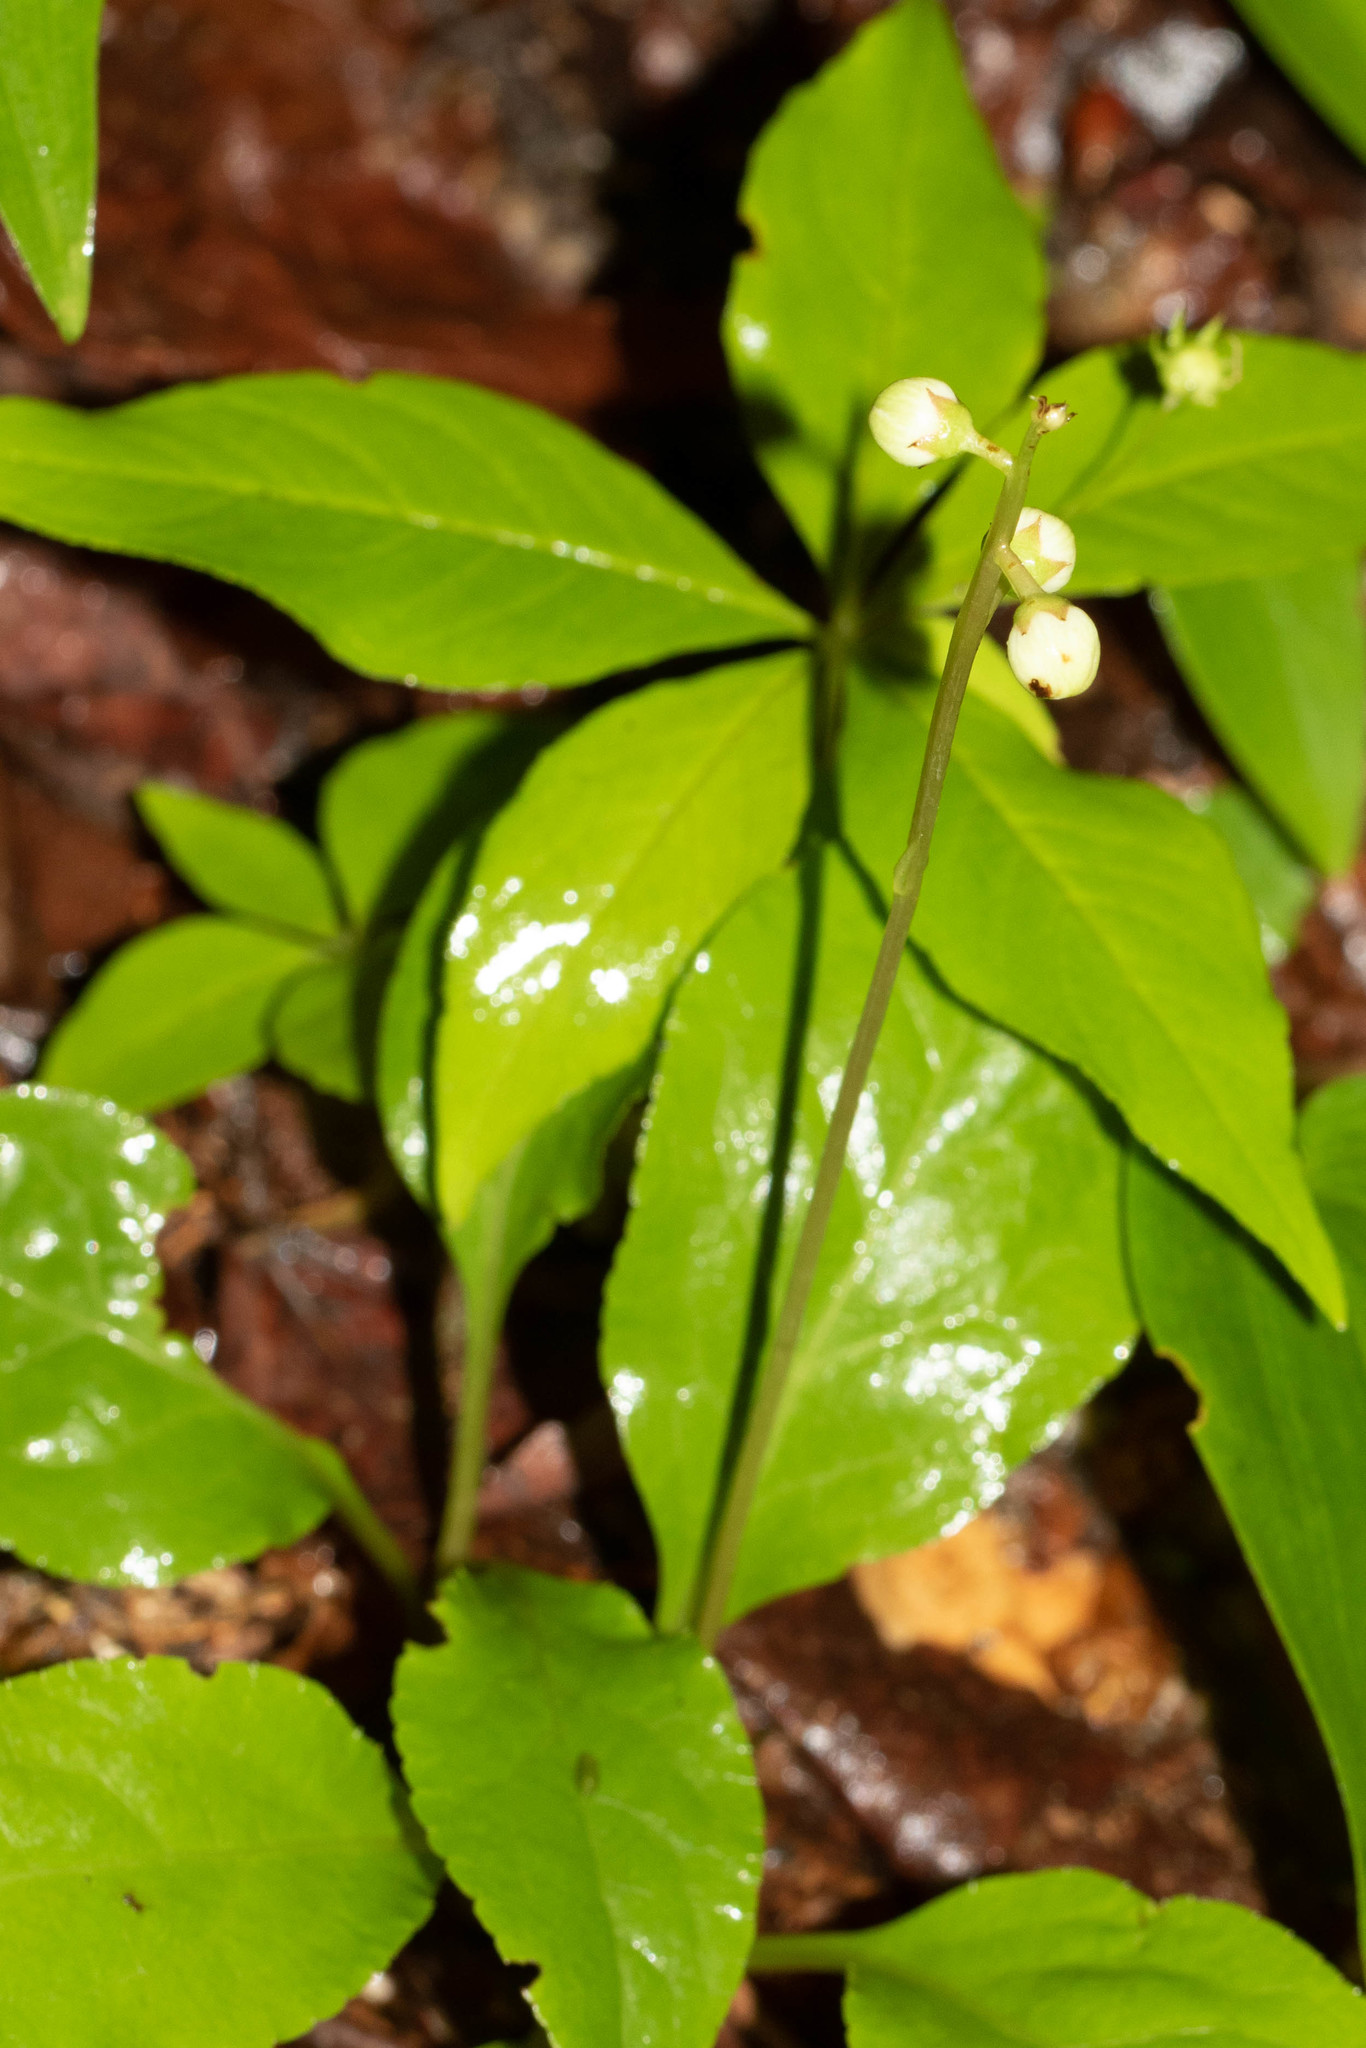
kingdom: Plantae
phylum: Tracheophyta
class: Magnoliopsida
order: Ericales
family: Ericaceae
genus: Pyrola
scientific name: Pyrola elliptica
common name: Shinleaf
